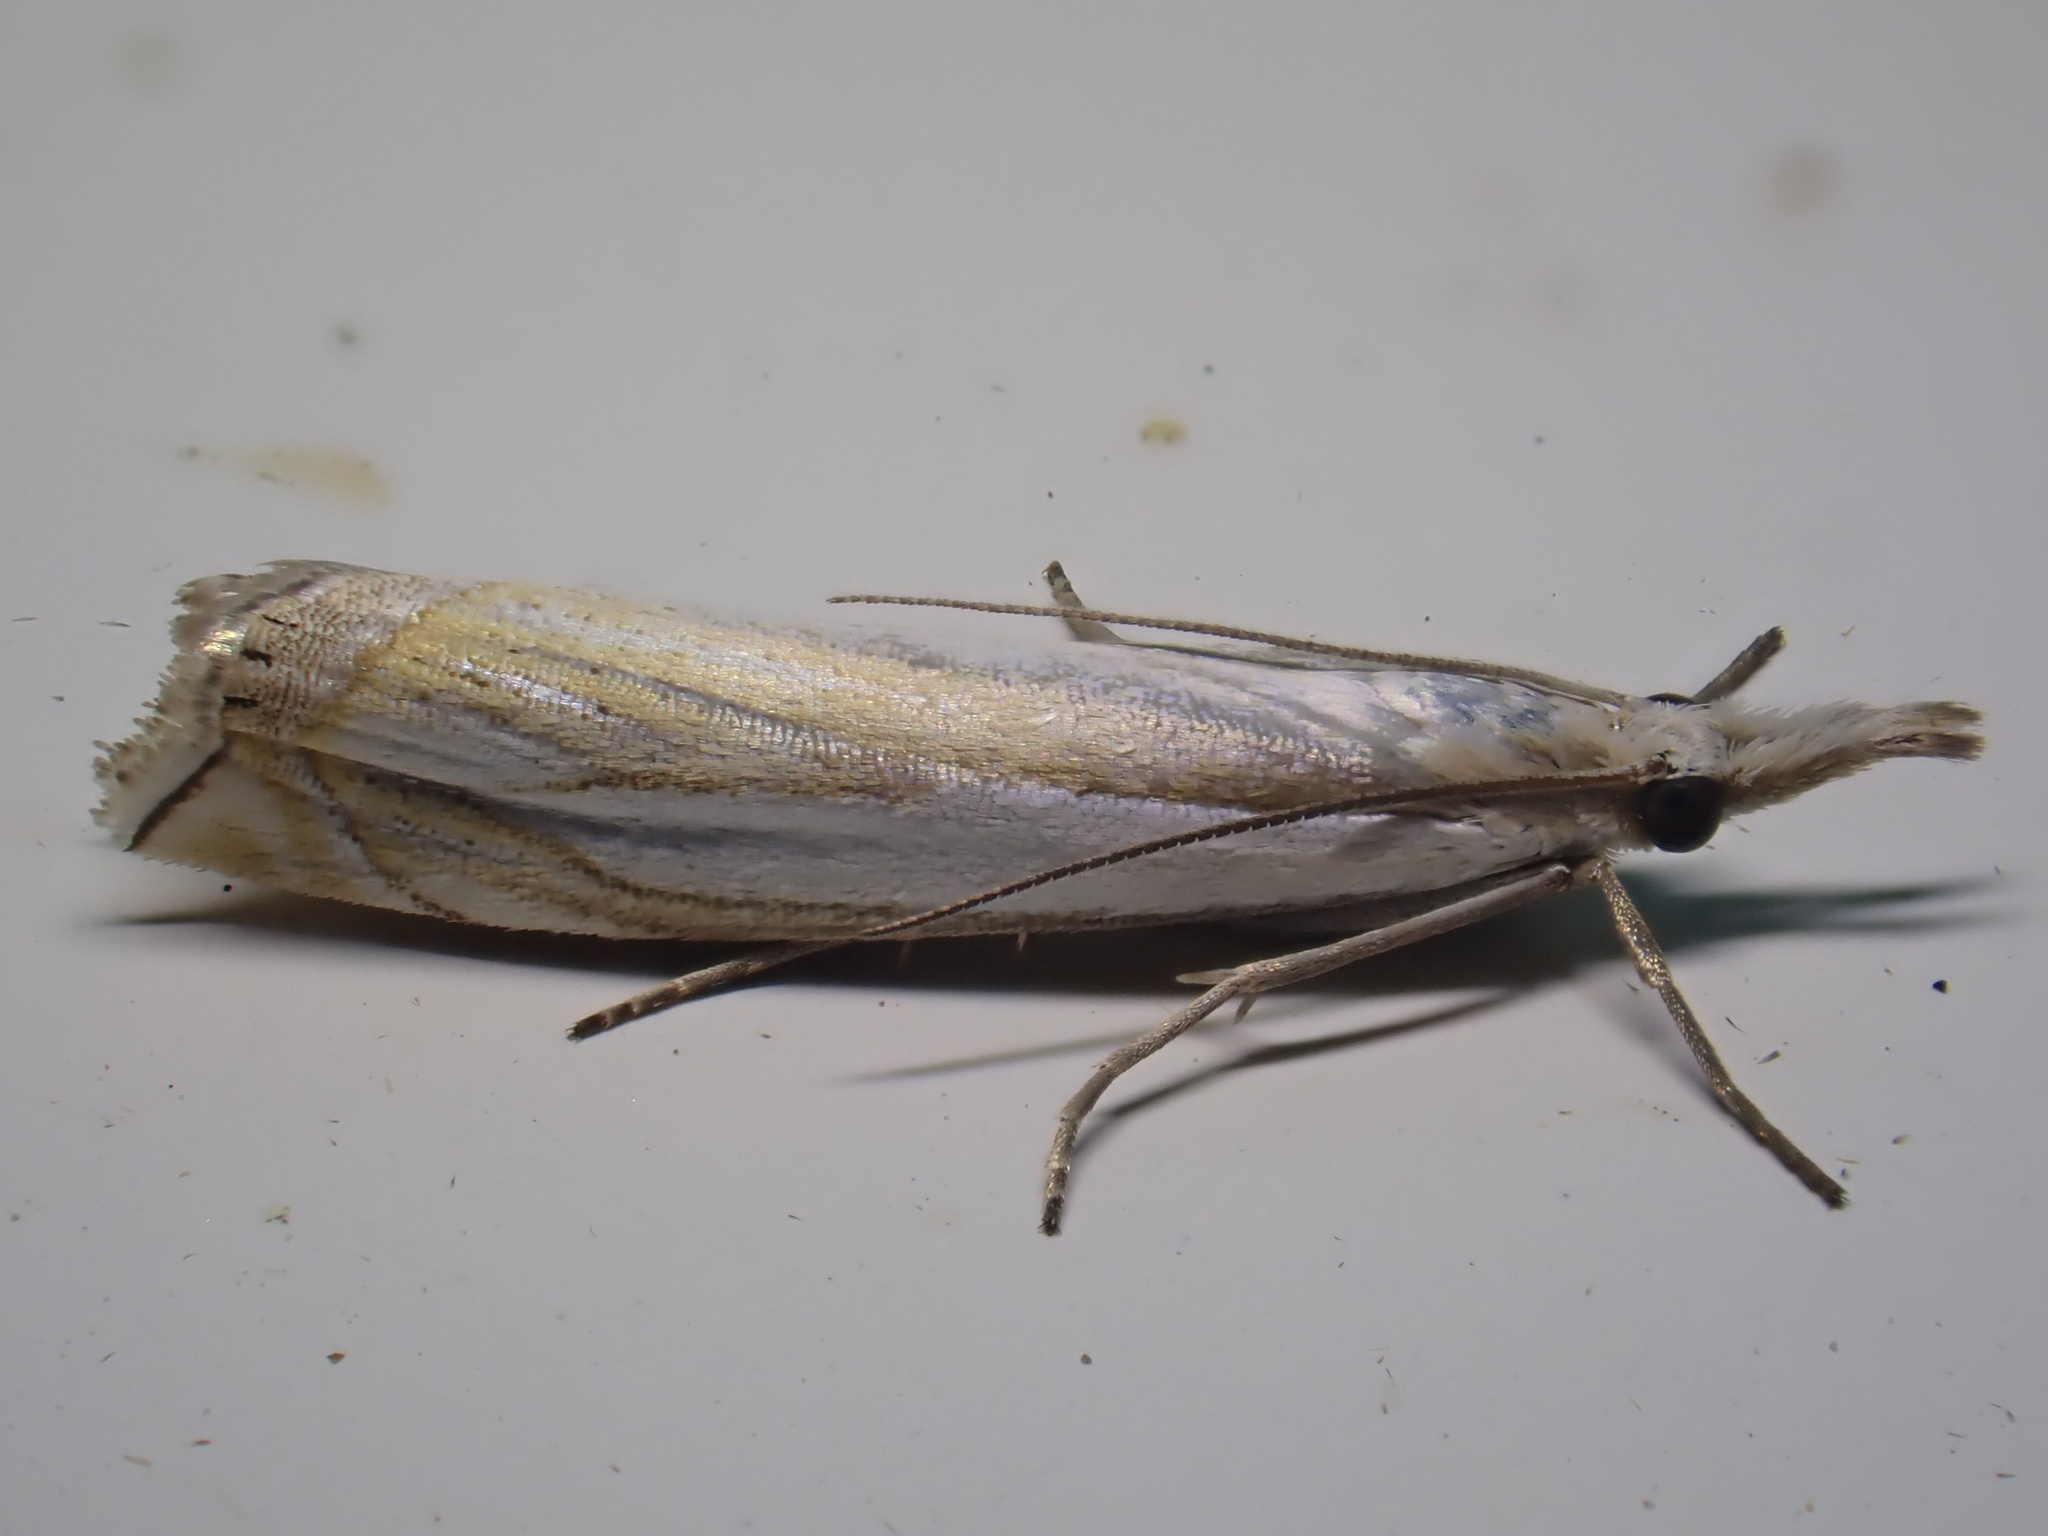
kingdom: Animalia
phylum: Arthropoda
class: Insecta
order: Lepidoptera
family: Crambidae
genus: Crambus
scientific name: Crambus pascuella
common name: Inlaid grass-veneer
